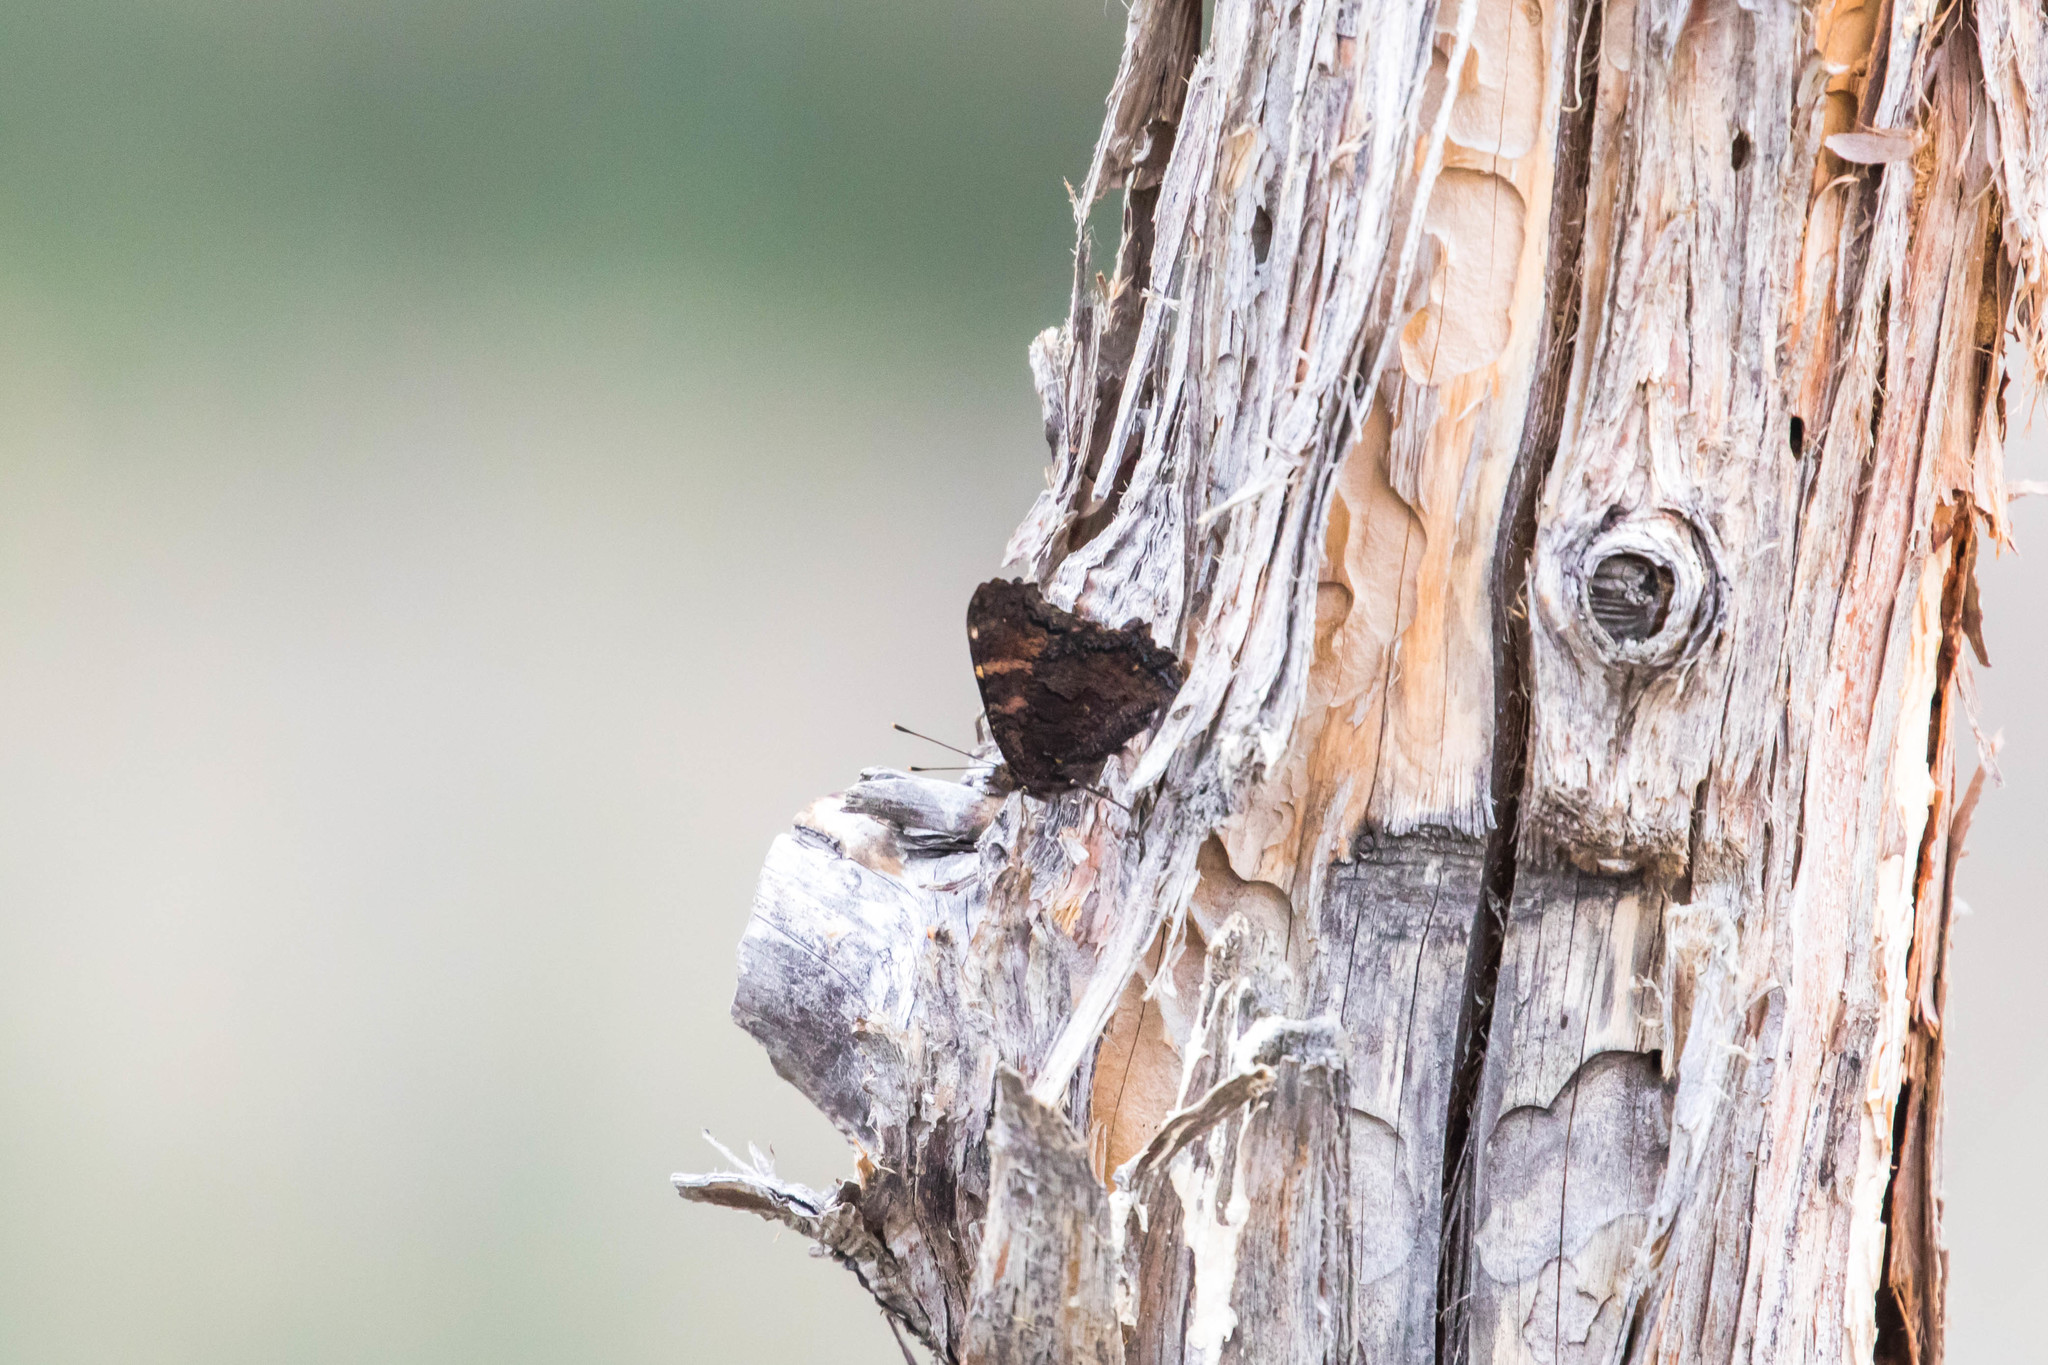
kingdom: Animalia
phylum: Arthropoda
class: Insecta
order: Lepidoptera
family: Nymphalidae
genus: Nymphalis
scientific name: Nymphalis californica
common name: California tortoiseshell
